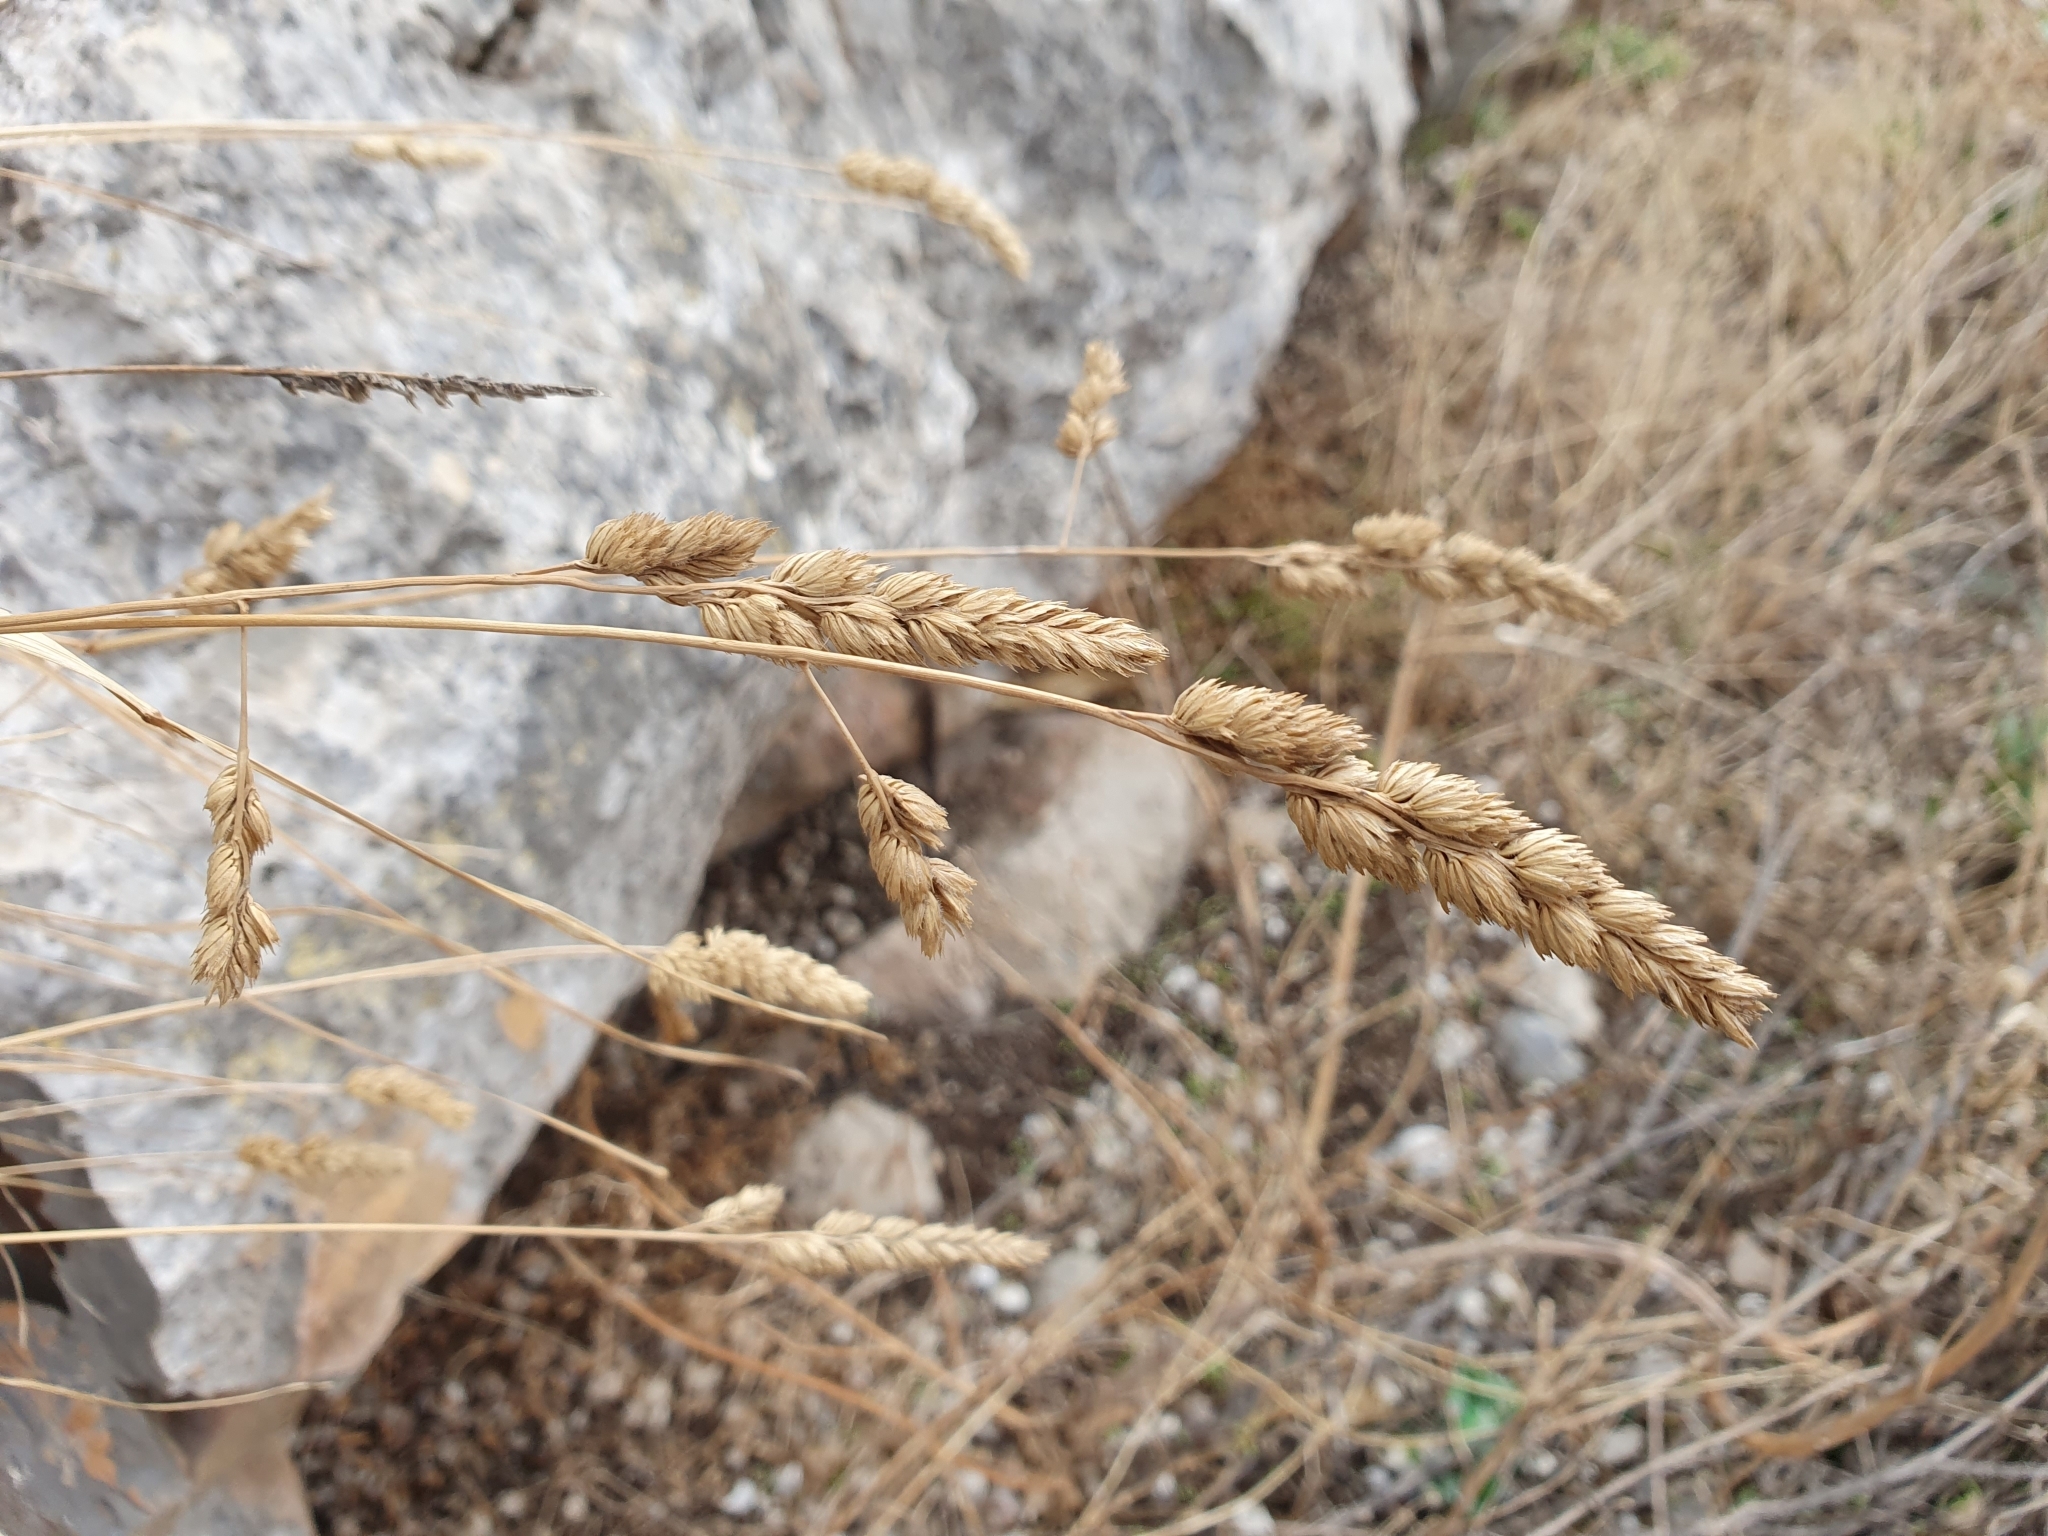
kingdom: Plantae
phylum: Tracheophyta
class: Liliopsida
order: Poales
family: Poaceae
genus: Dactylis
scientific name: Dactylis glomerata
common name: Orchardgrass
